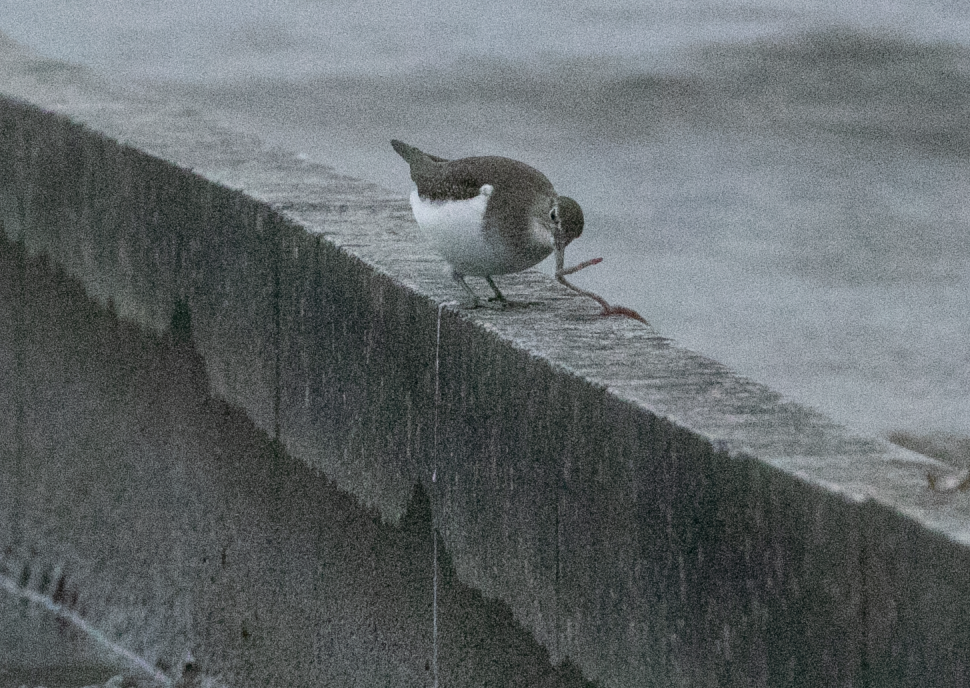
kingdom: Animalia
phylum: Chordata
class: Aves
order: Charadriiformes
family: Scolopacidae
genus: Actitis
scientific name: Actitis hypoleucos
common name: Common sandpiper
